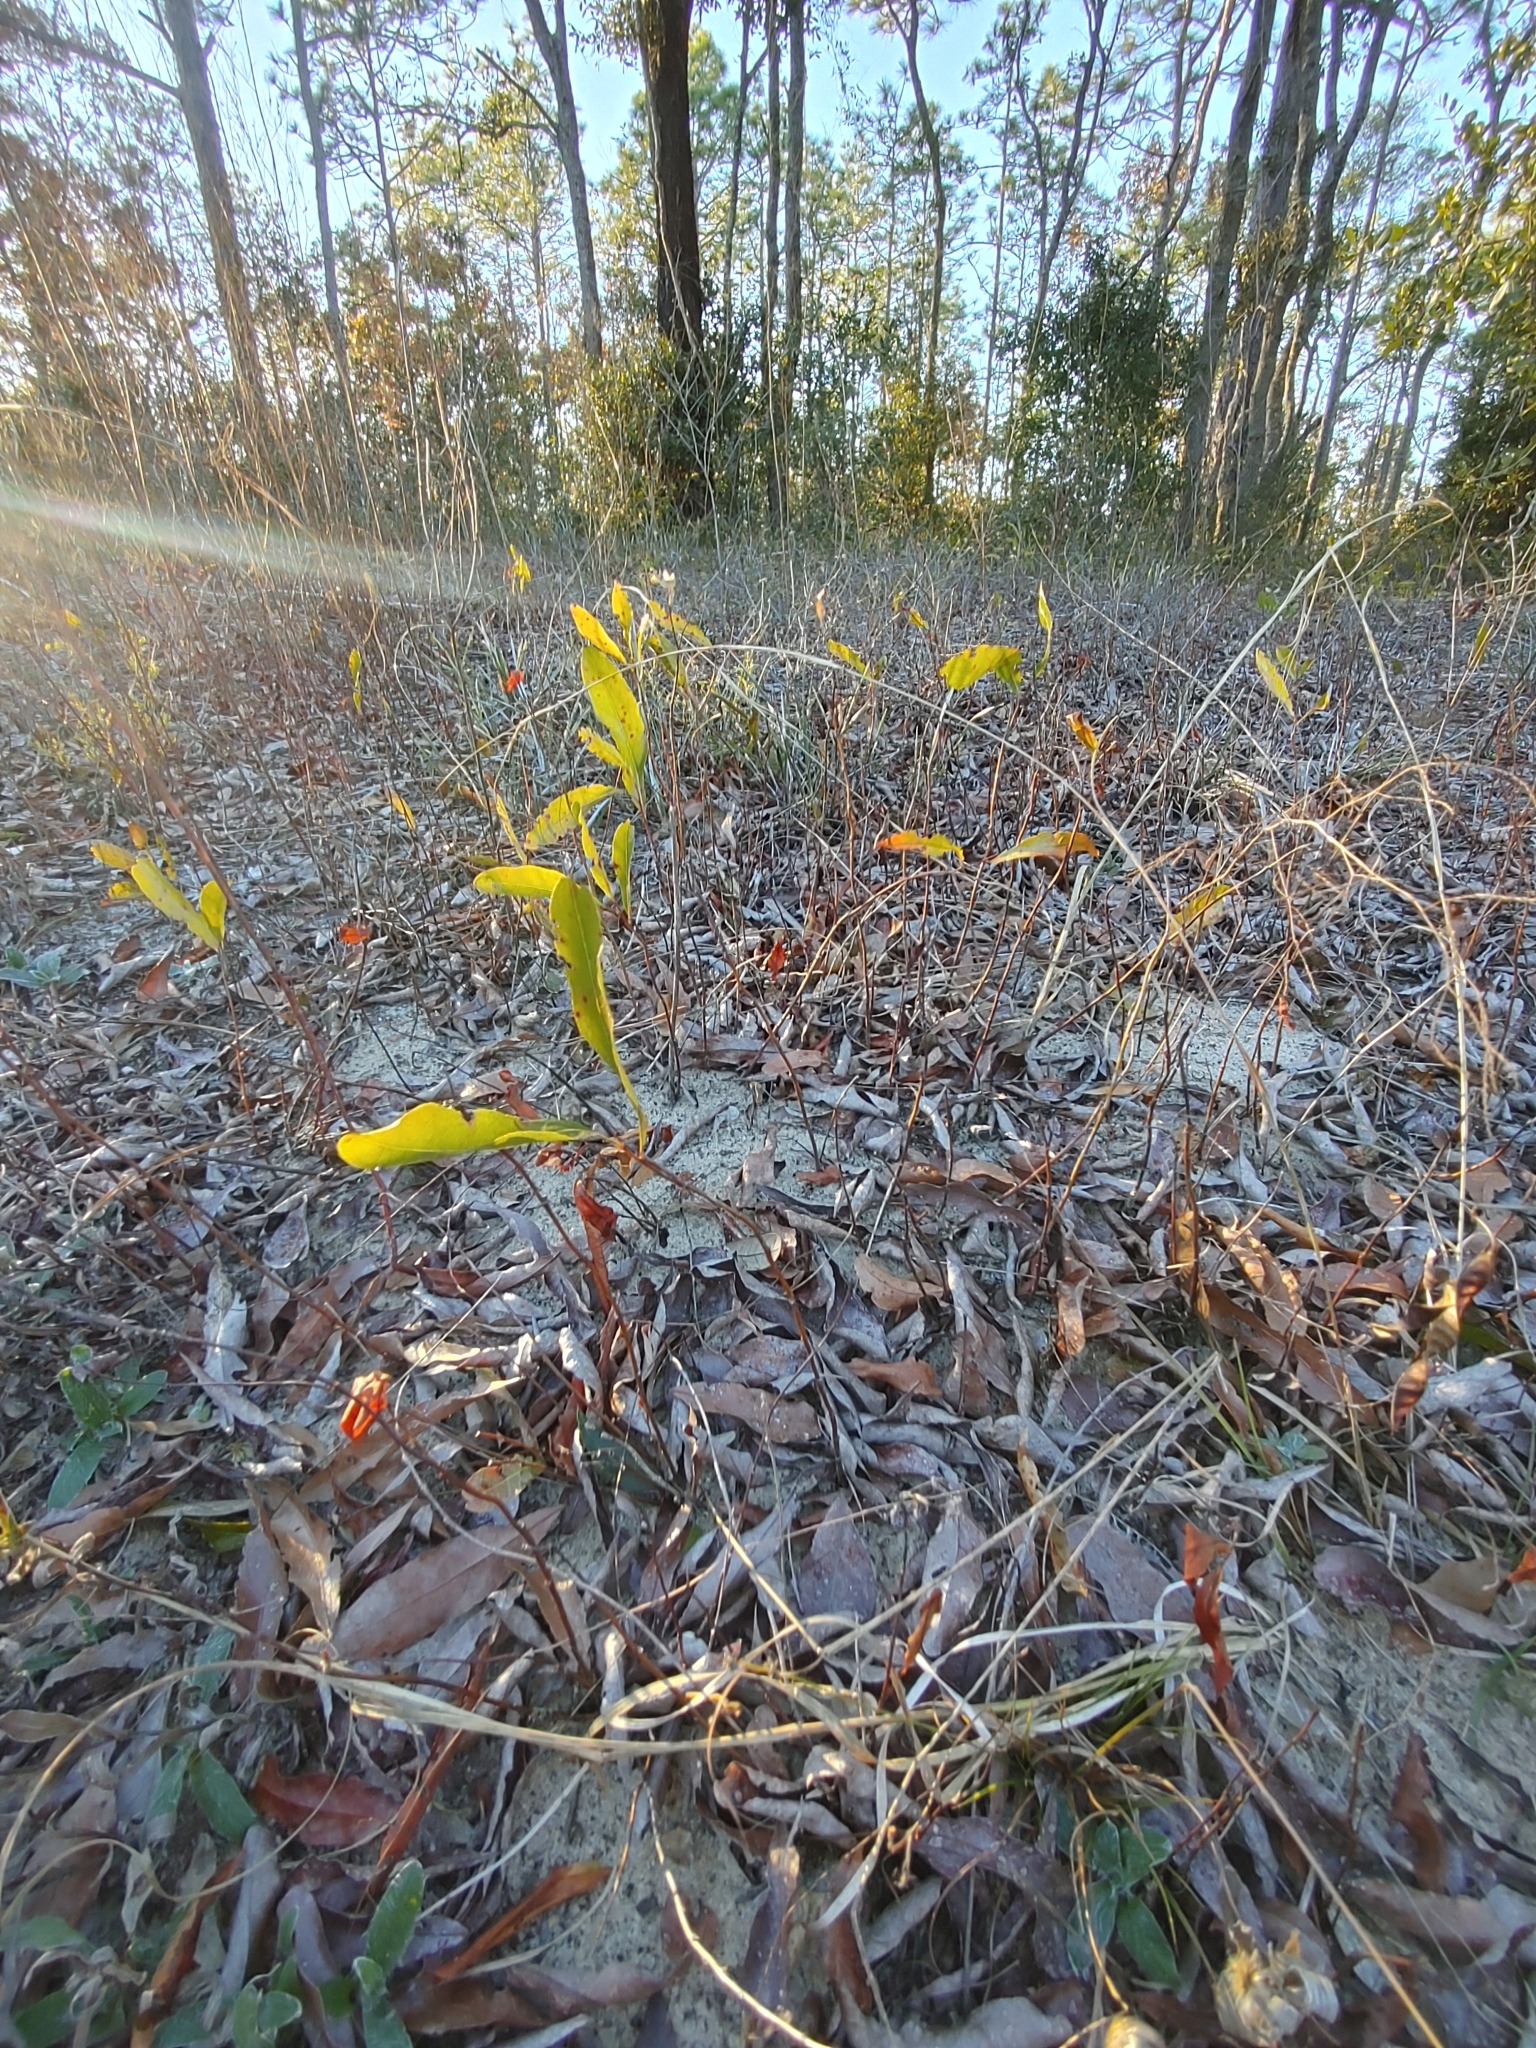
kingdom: Plantae
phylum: Tracheophyta
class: Magnoliopsida
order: Malpighiales
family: Chrysobalanaceae
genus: Geobalanus
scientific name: Geobalanus oblongifolius
